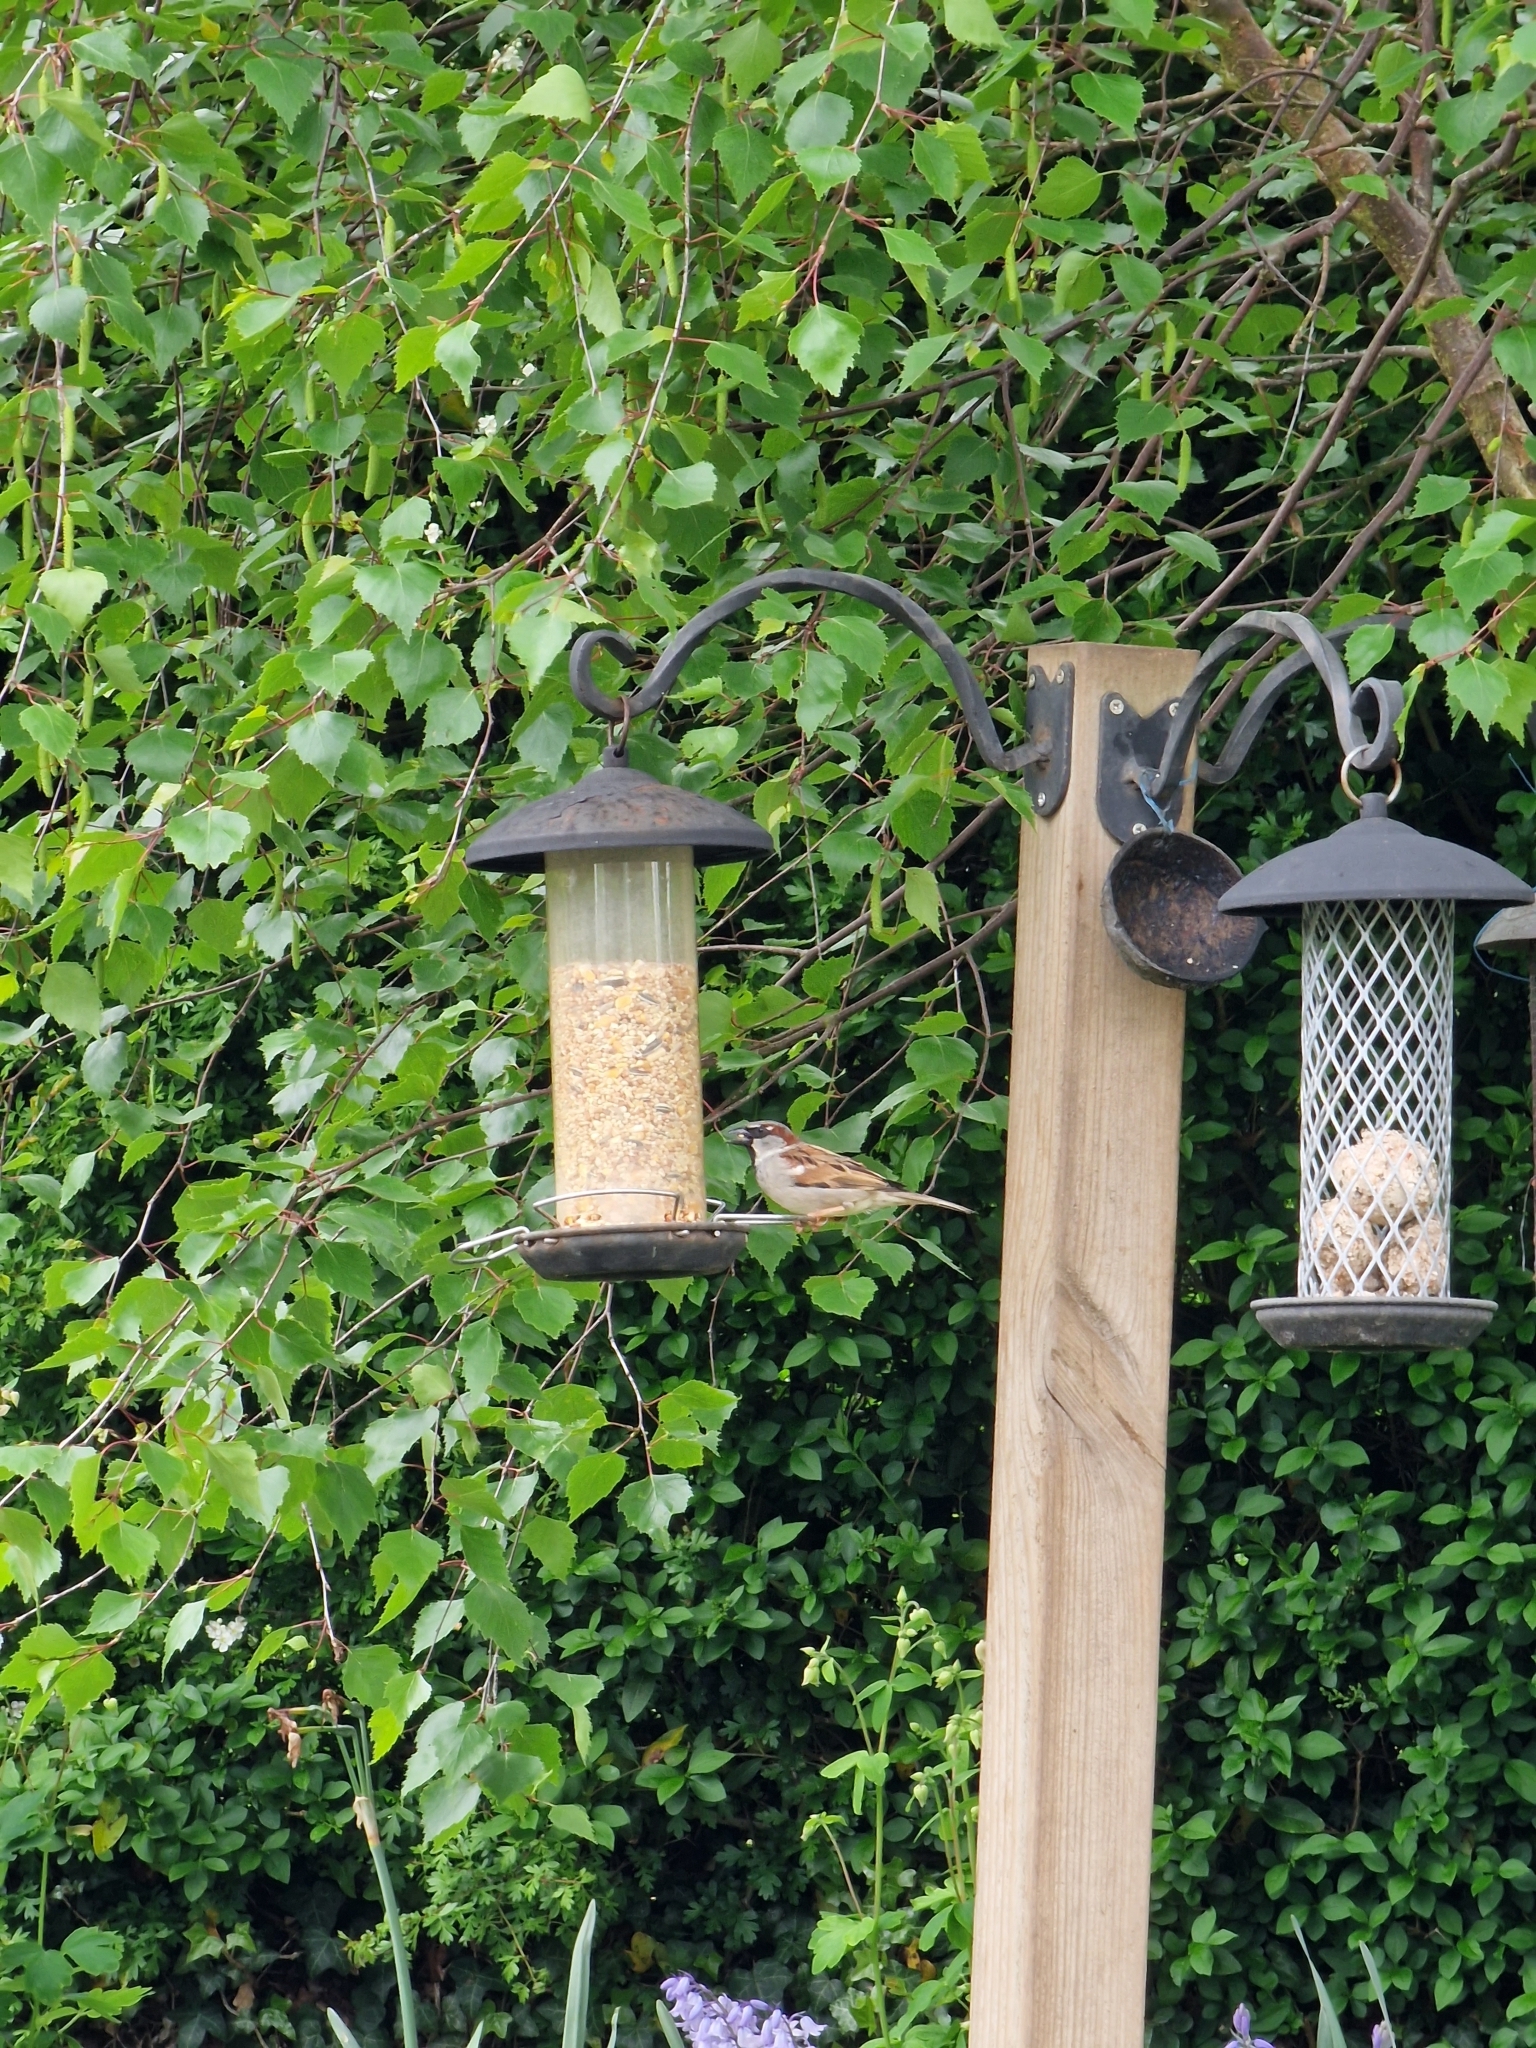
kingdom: Animalia
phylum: Chordata
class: Aves
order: Passeriformes
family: Passeridae
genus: Passer
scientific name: Passer domesticus
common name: House sparrow
